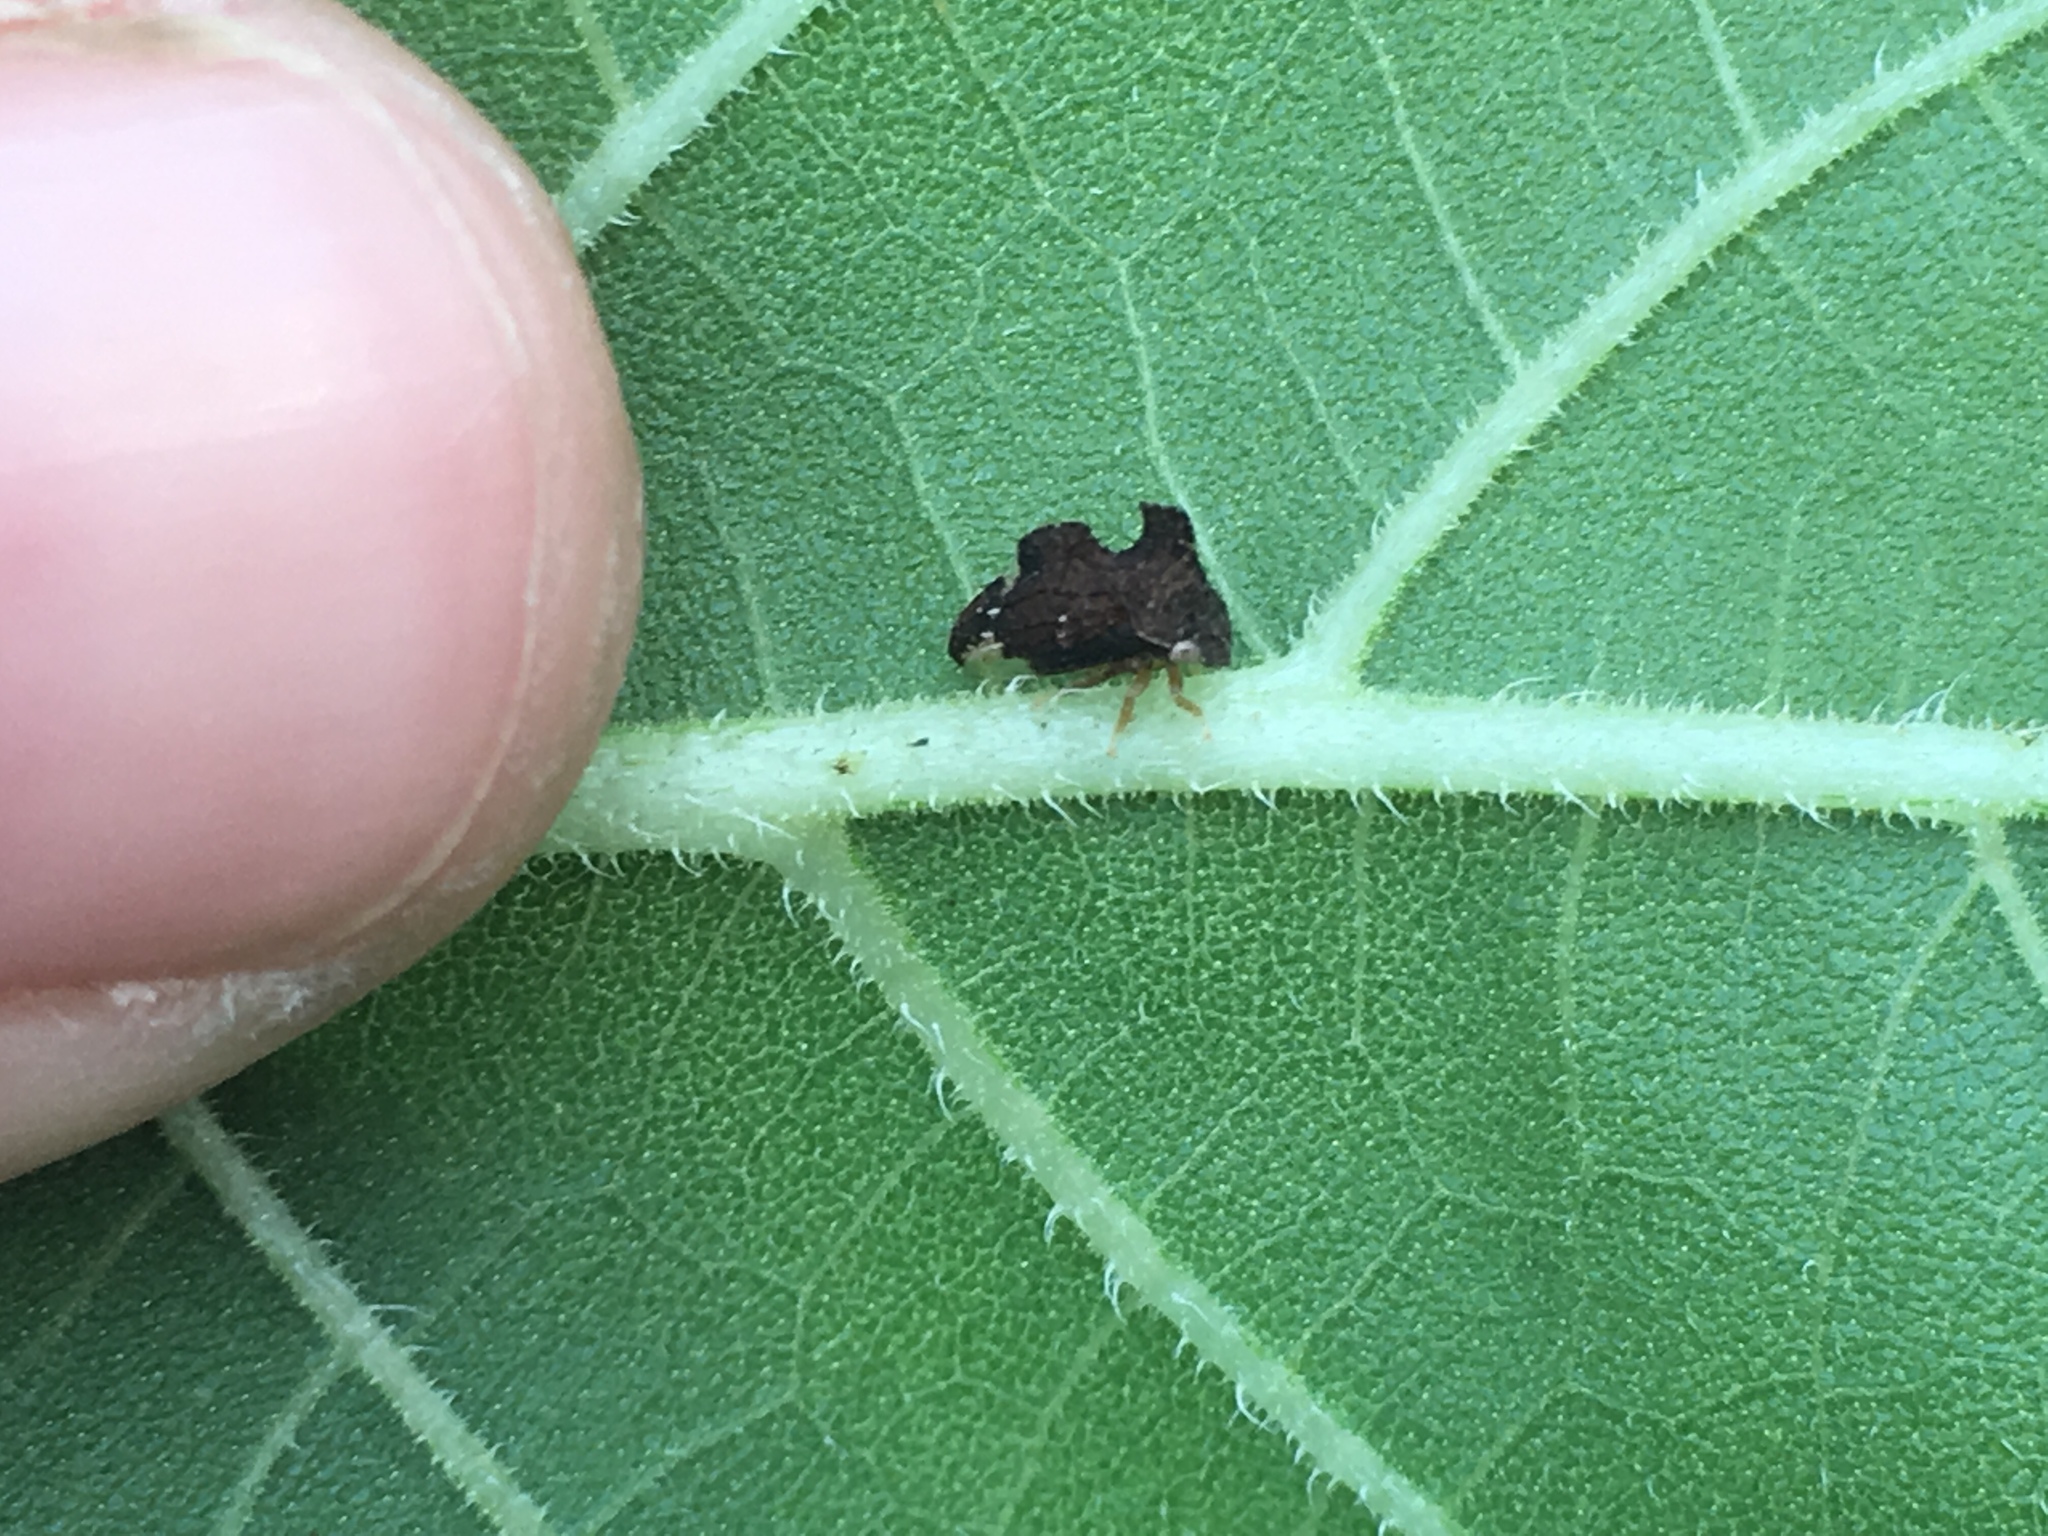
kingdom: Animalia
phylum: Arthropoda
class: Insecta
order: Hemiptera
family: Membracidae
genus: Entylia
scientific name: Entylia carinata
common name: Keeled treehopper
